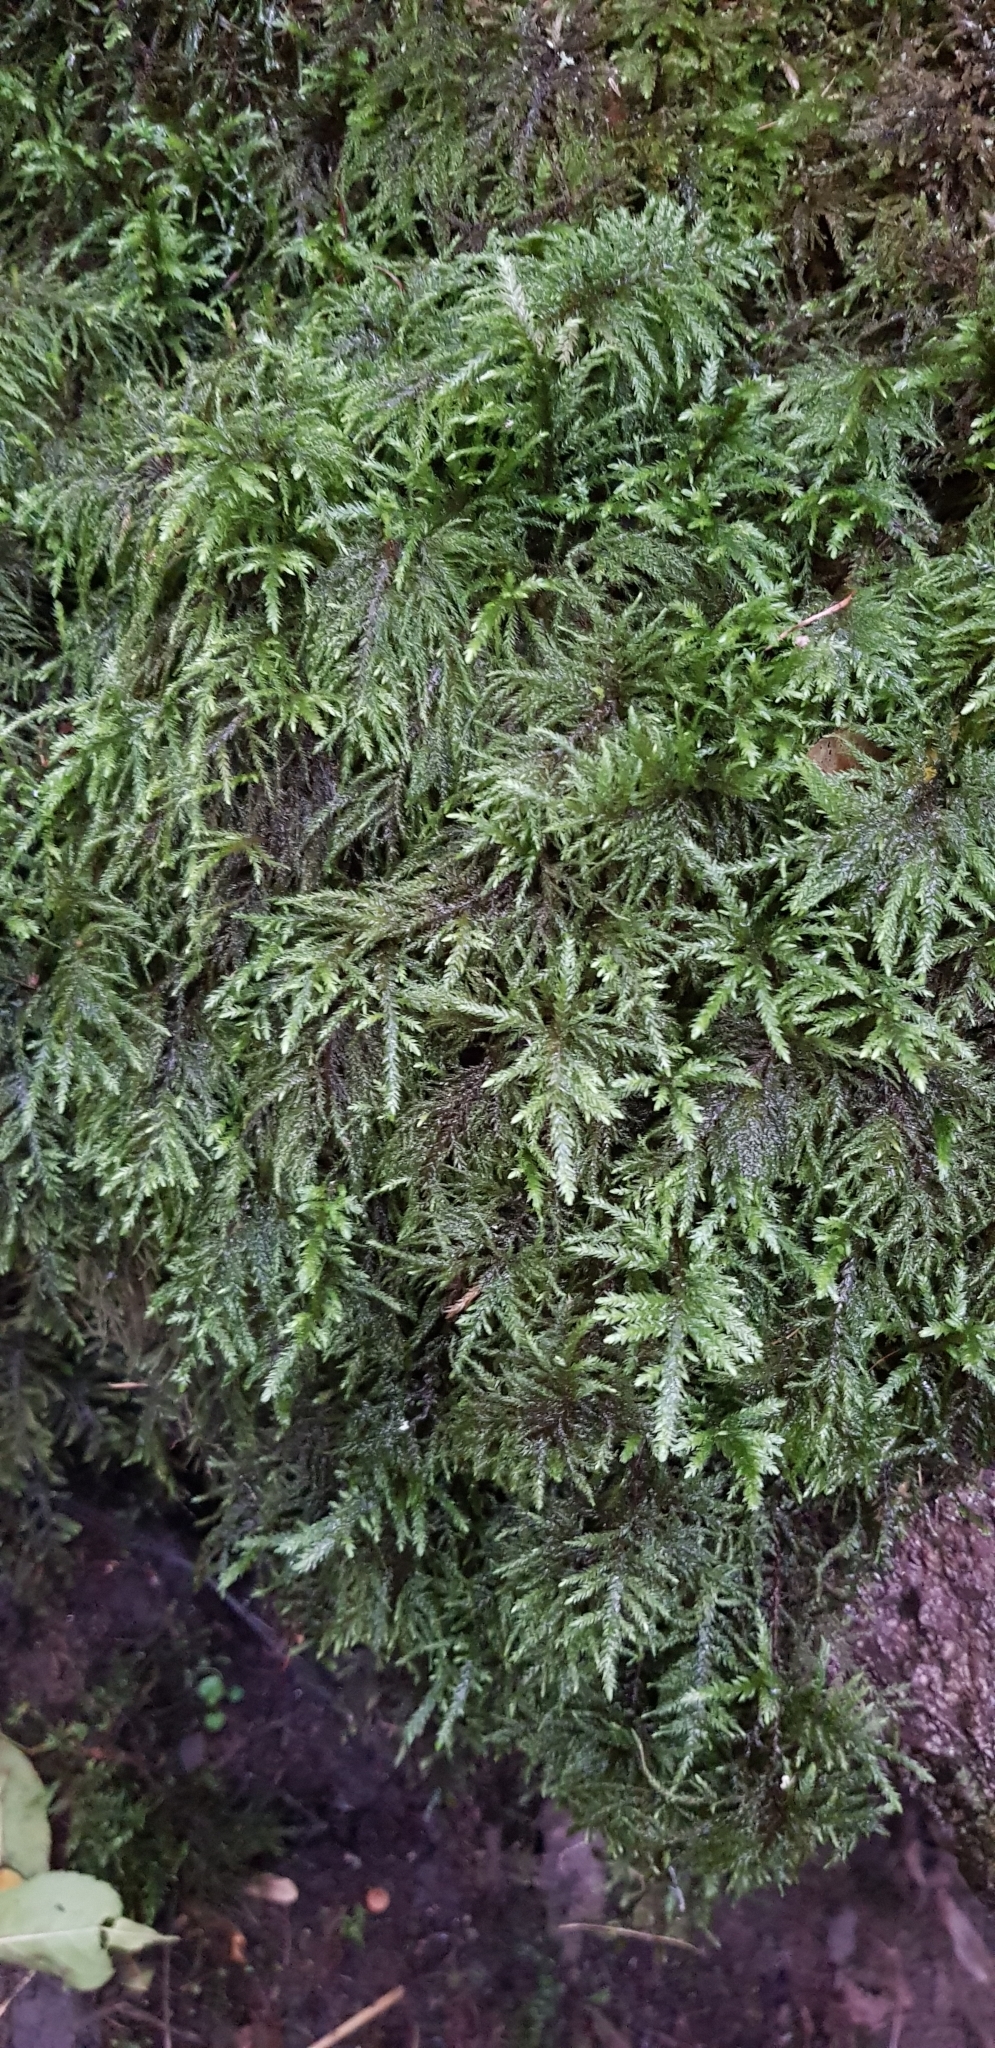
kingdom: Plantae
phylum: Bryophyta
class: Bryopsida
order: Hypnales
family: Neckeraceae
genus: Thamnobryum
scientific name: Thamnobryum alopecurum
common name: Fox-tail feather-moss
